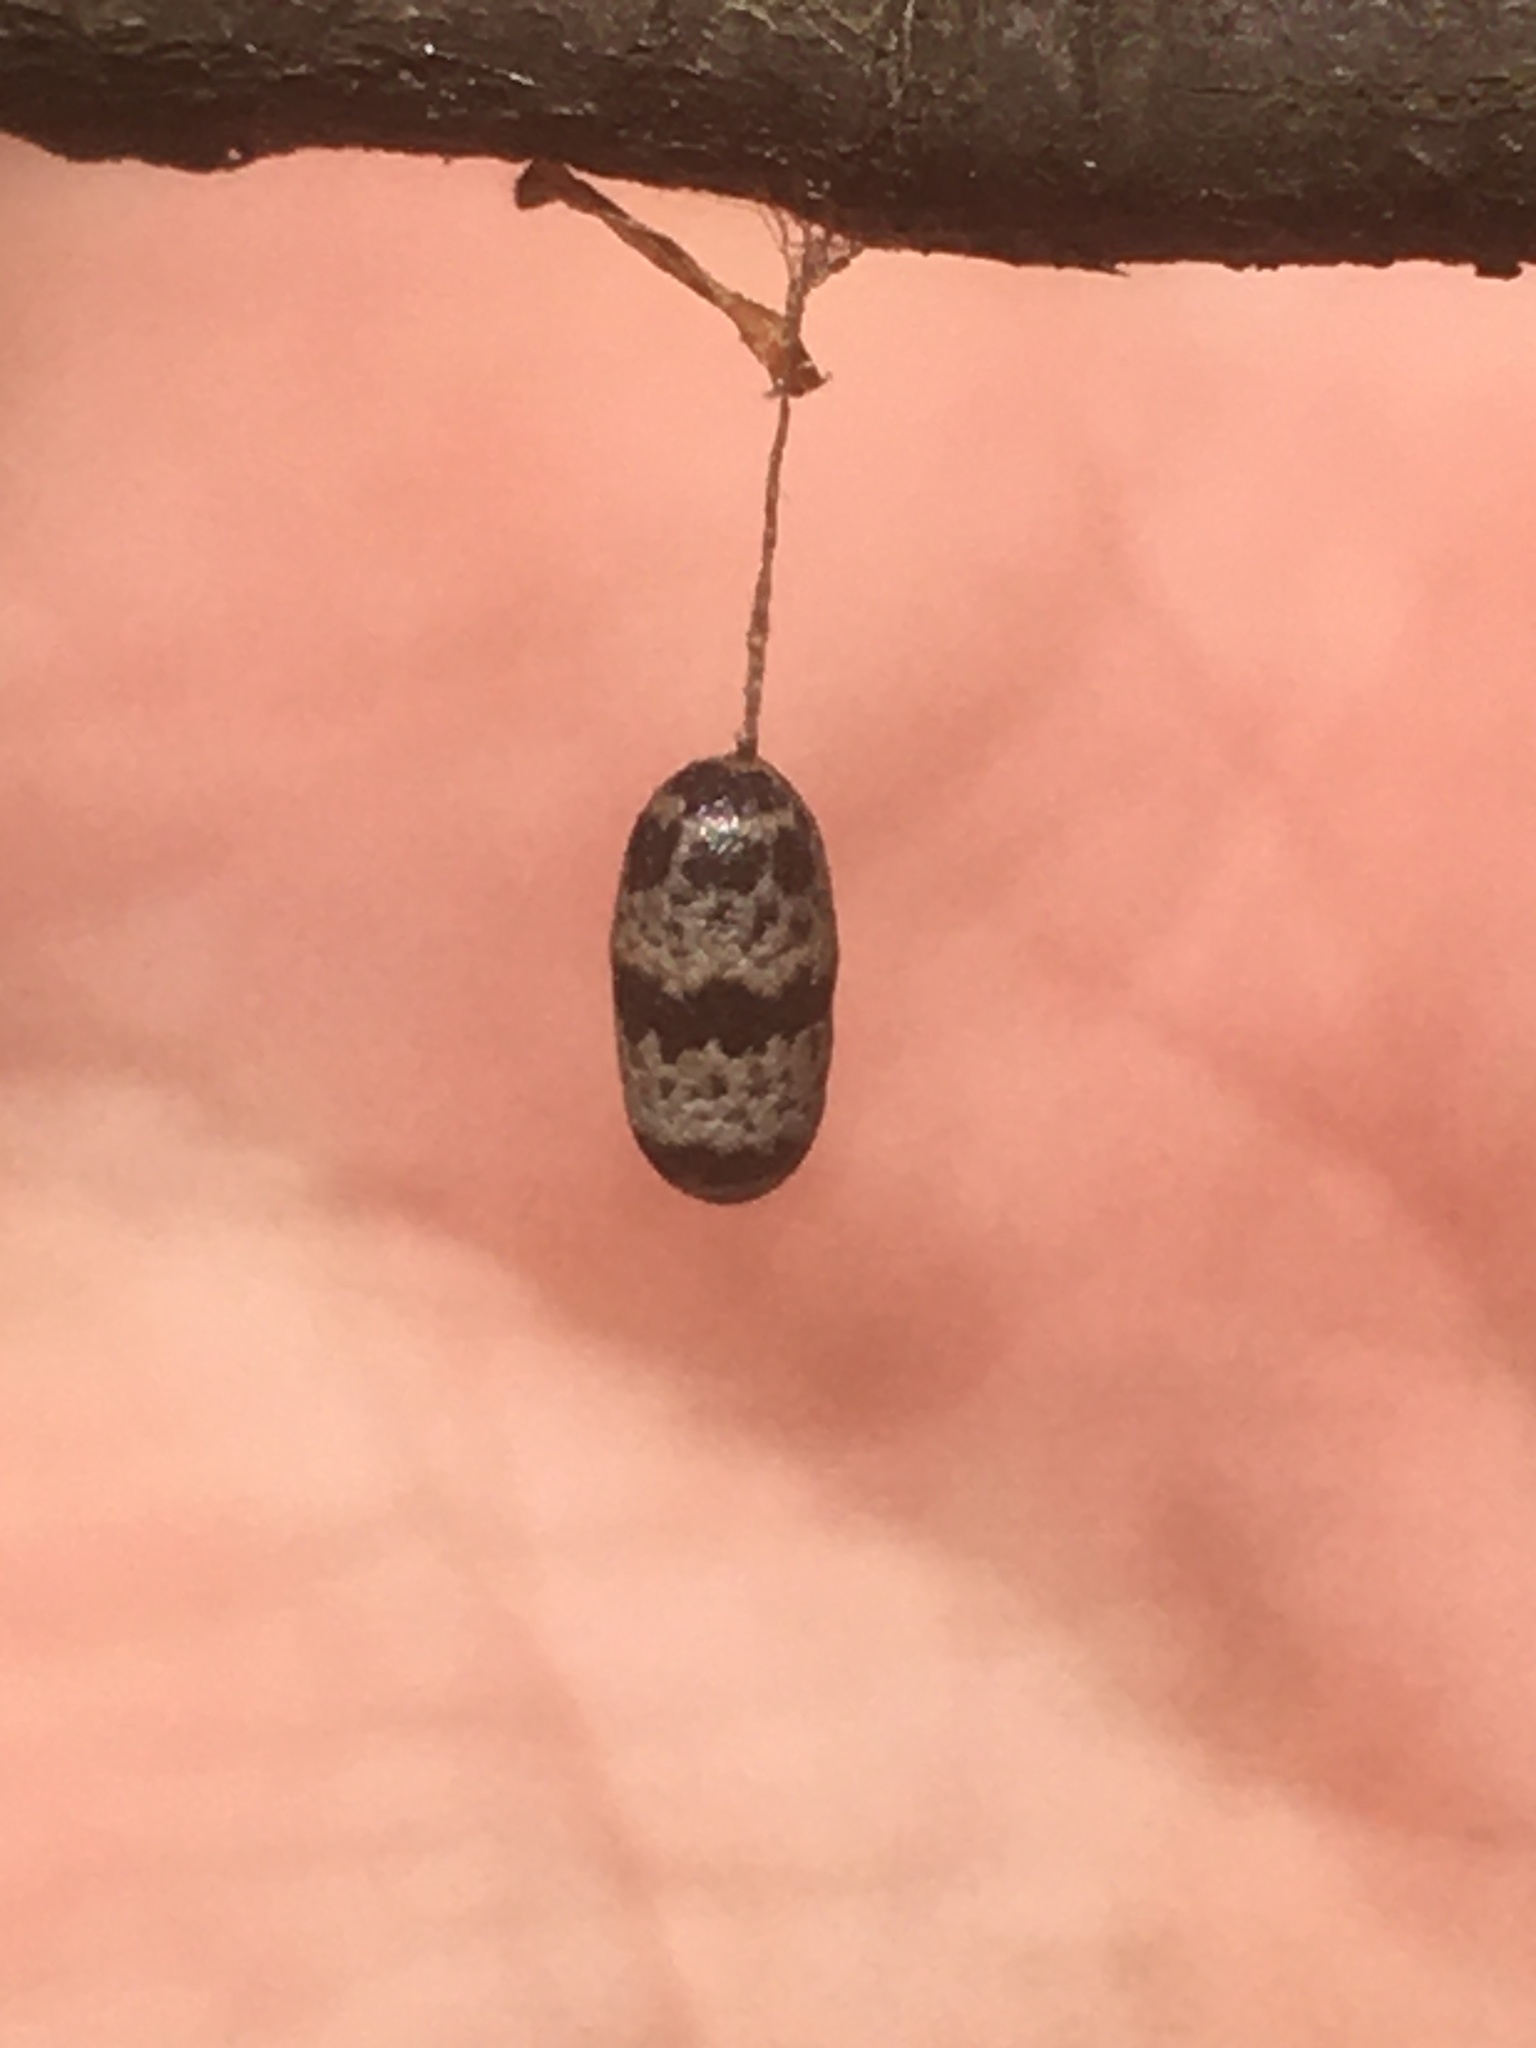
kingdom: Animalia
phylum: Arthropoda
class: Insecta
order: Hymenoptera
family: Ichneumonidae
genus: Charops
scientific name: Charops annulipes
